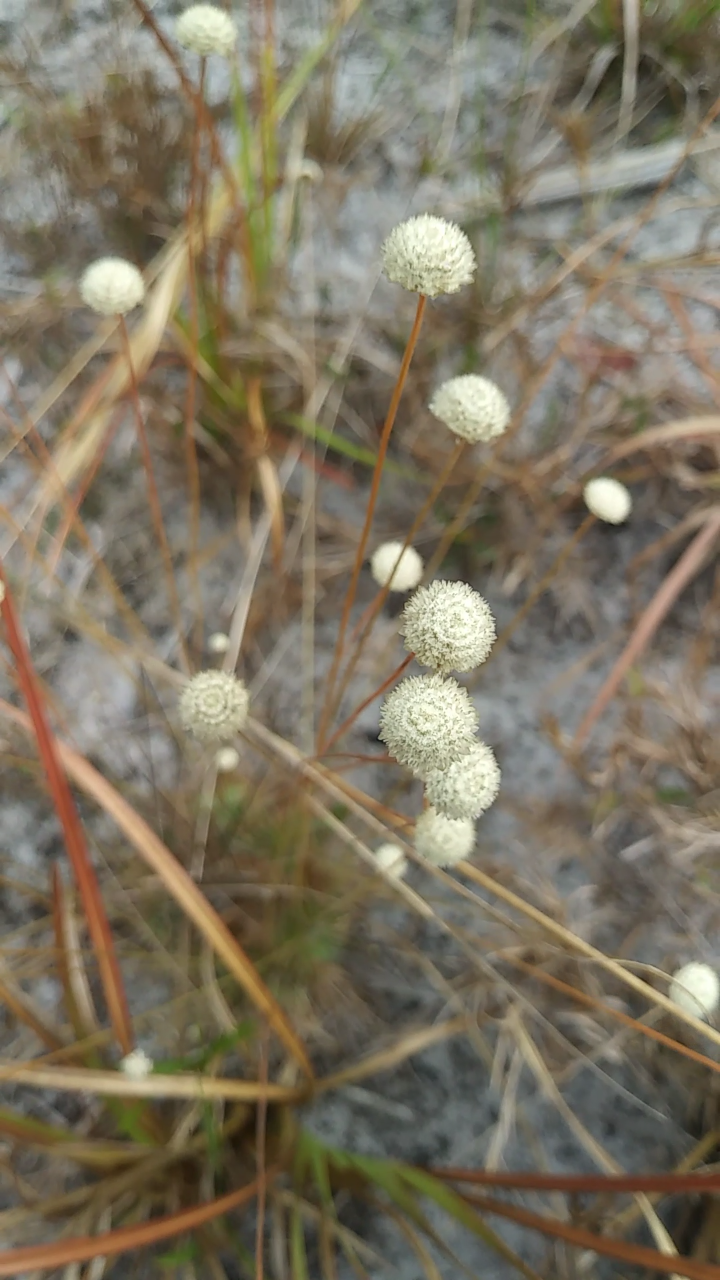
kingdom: Plantae
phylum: Tracheophyta
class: Liliopsida
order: Poales
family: Eriocaulaceae
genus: Syngonanthus
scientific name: Syngonanthus flavidulus
